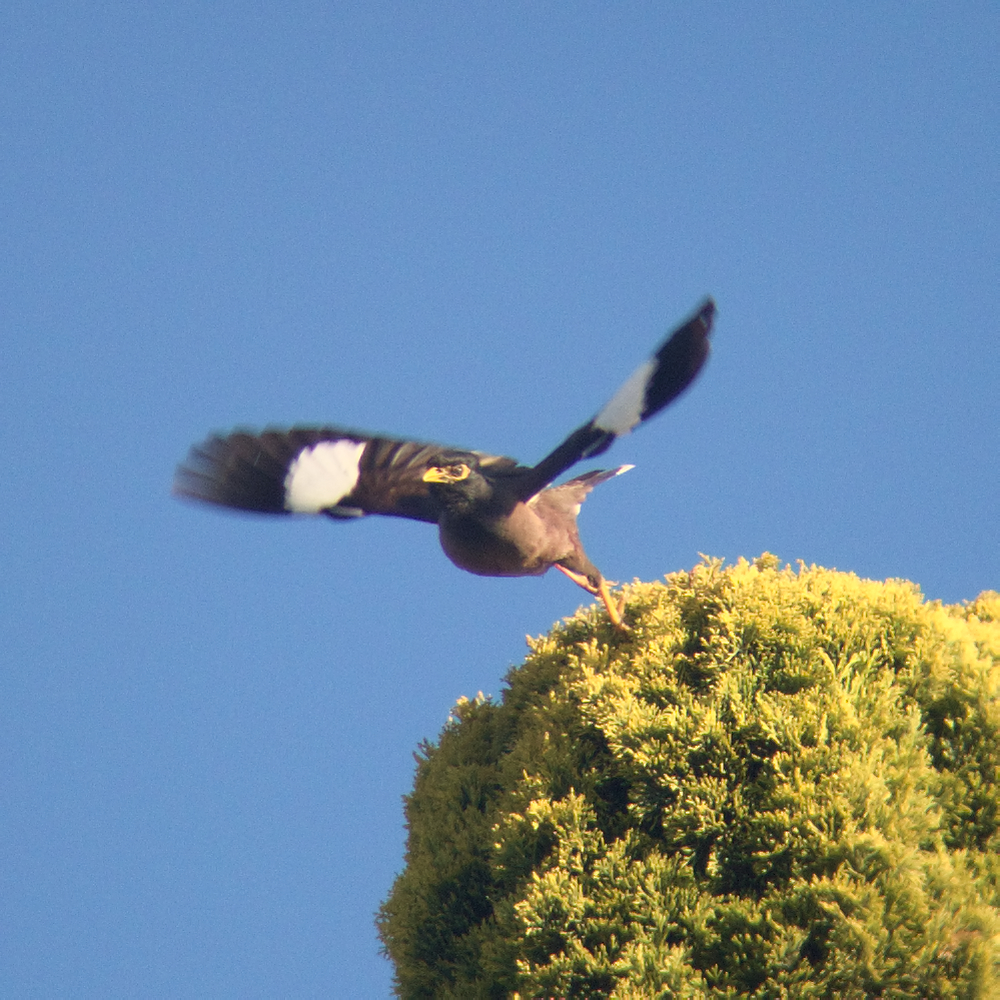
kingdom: Animalia
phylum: Chordata
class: Aves
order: Passeriformes
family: Sturnidae
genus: Acridotheres
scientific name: Acridotheres tristis
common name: Common myna
